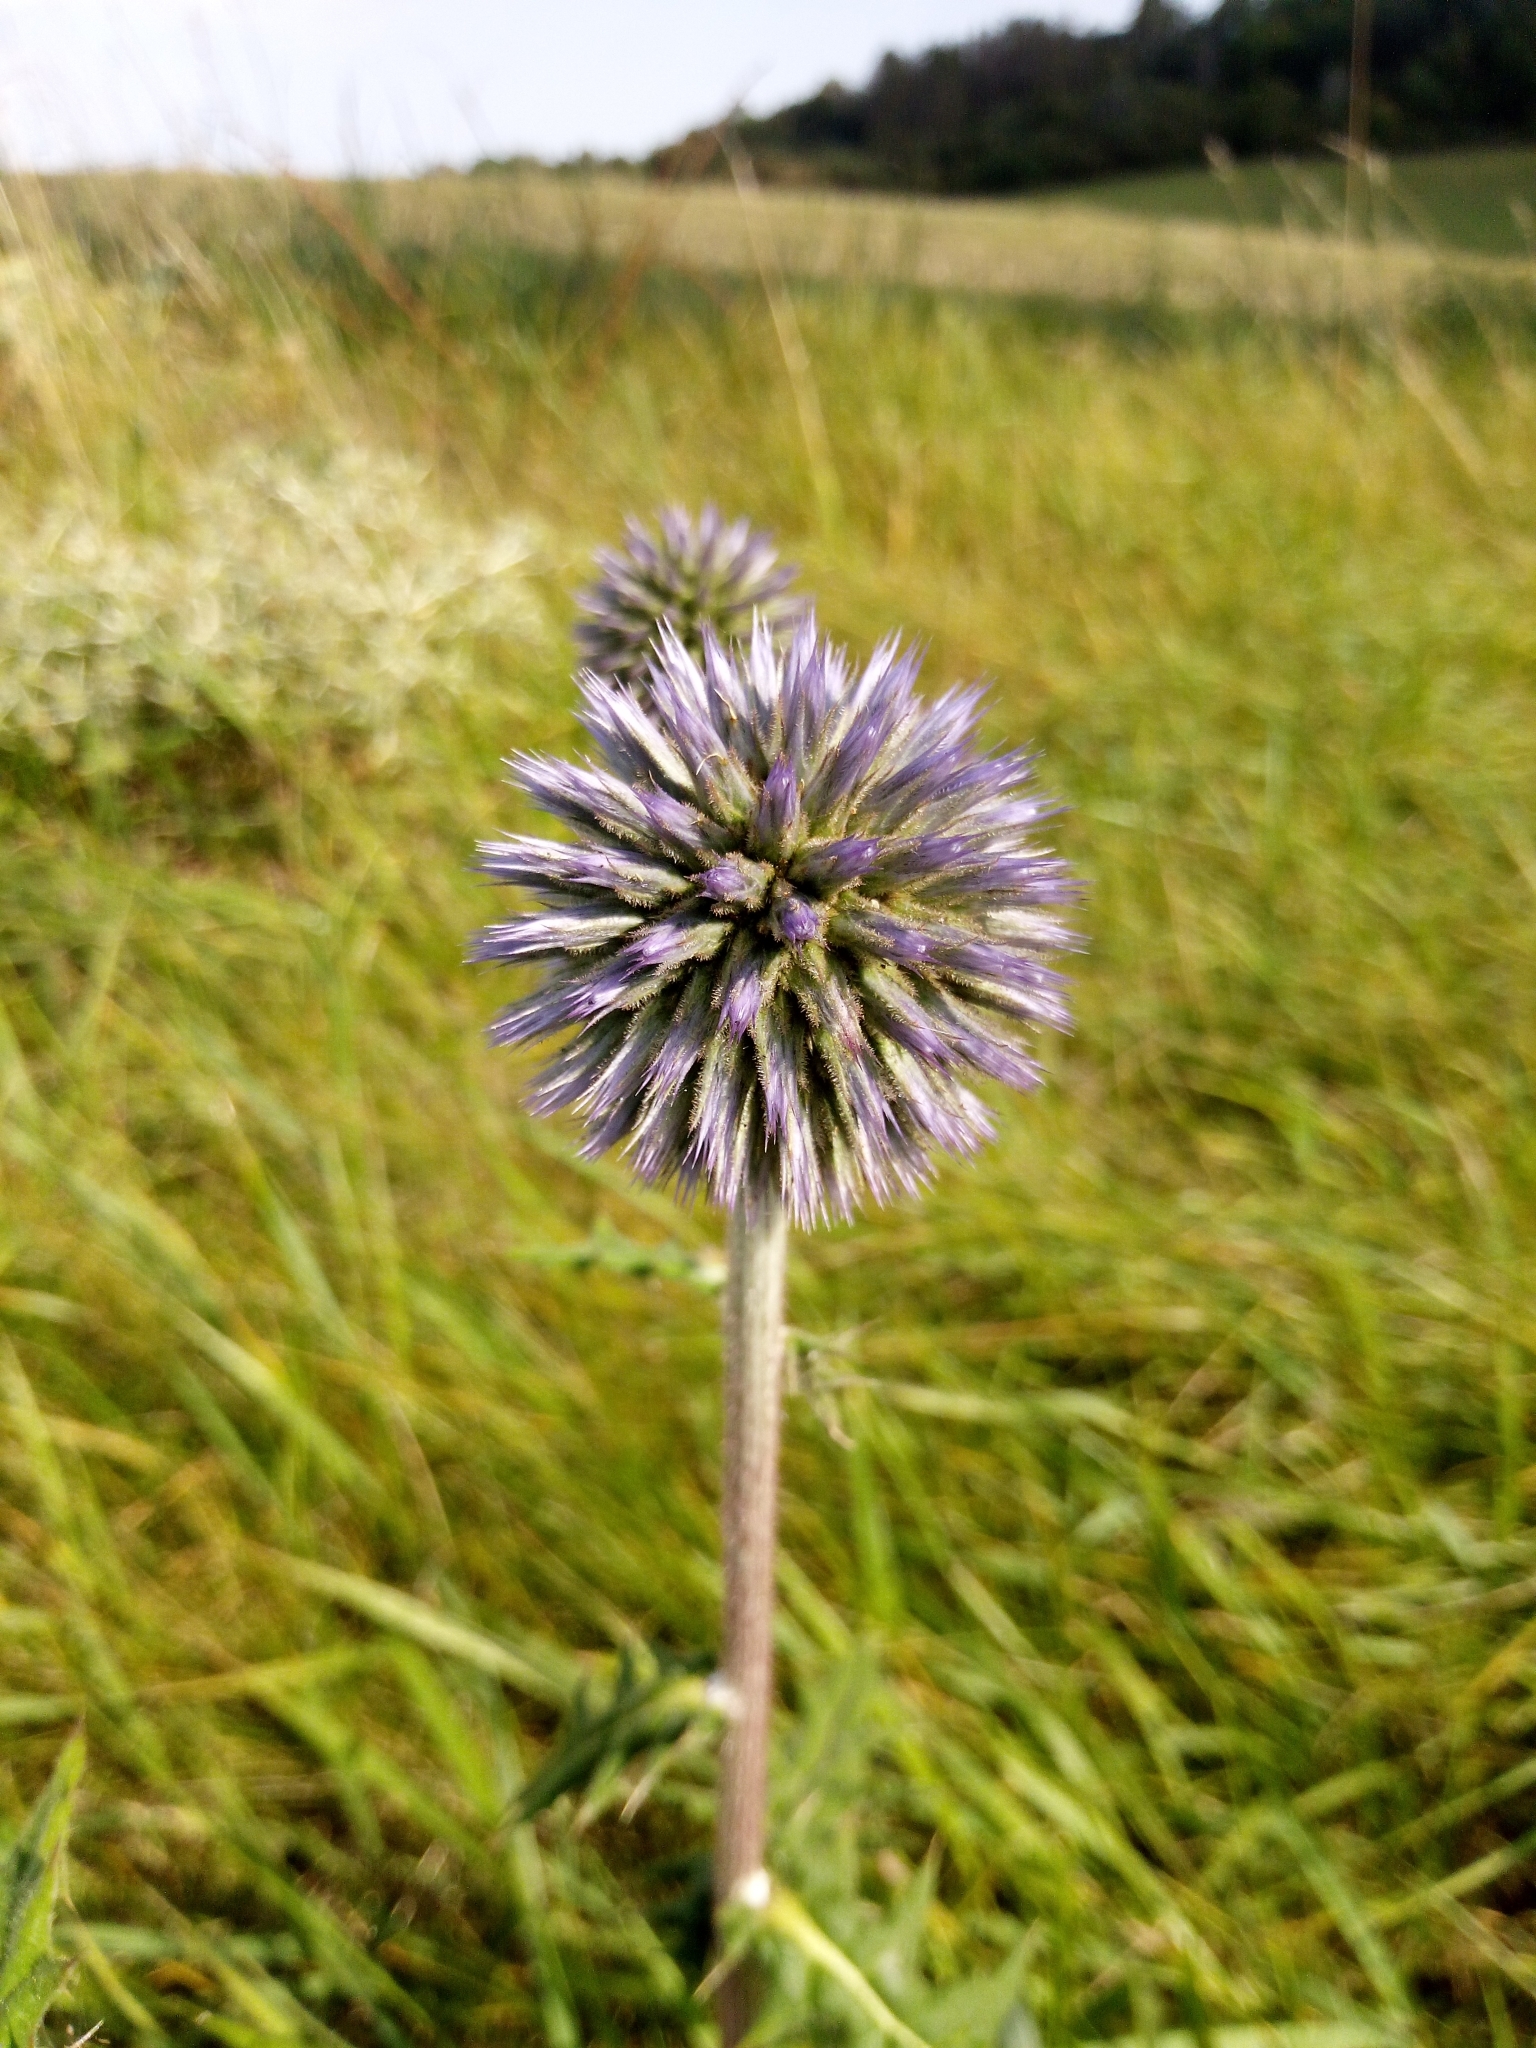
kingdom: Plantae
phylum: Tracheophyta
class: Magnoliopsida
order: Asterales
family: Asteraceae
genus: Echinops
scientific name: Echinops sphaerocephalus
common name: Glandular globe-thistle
